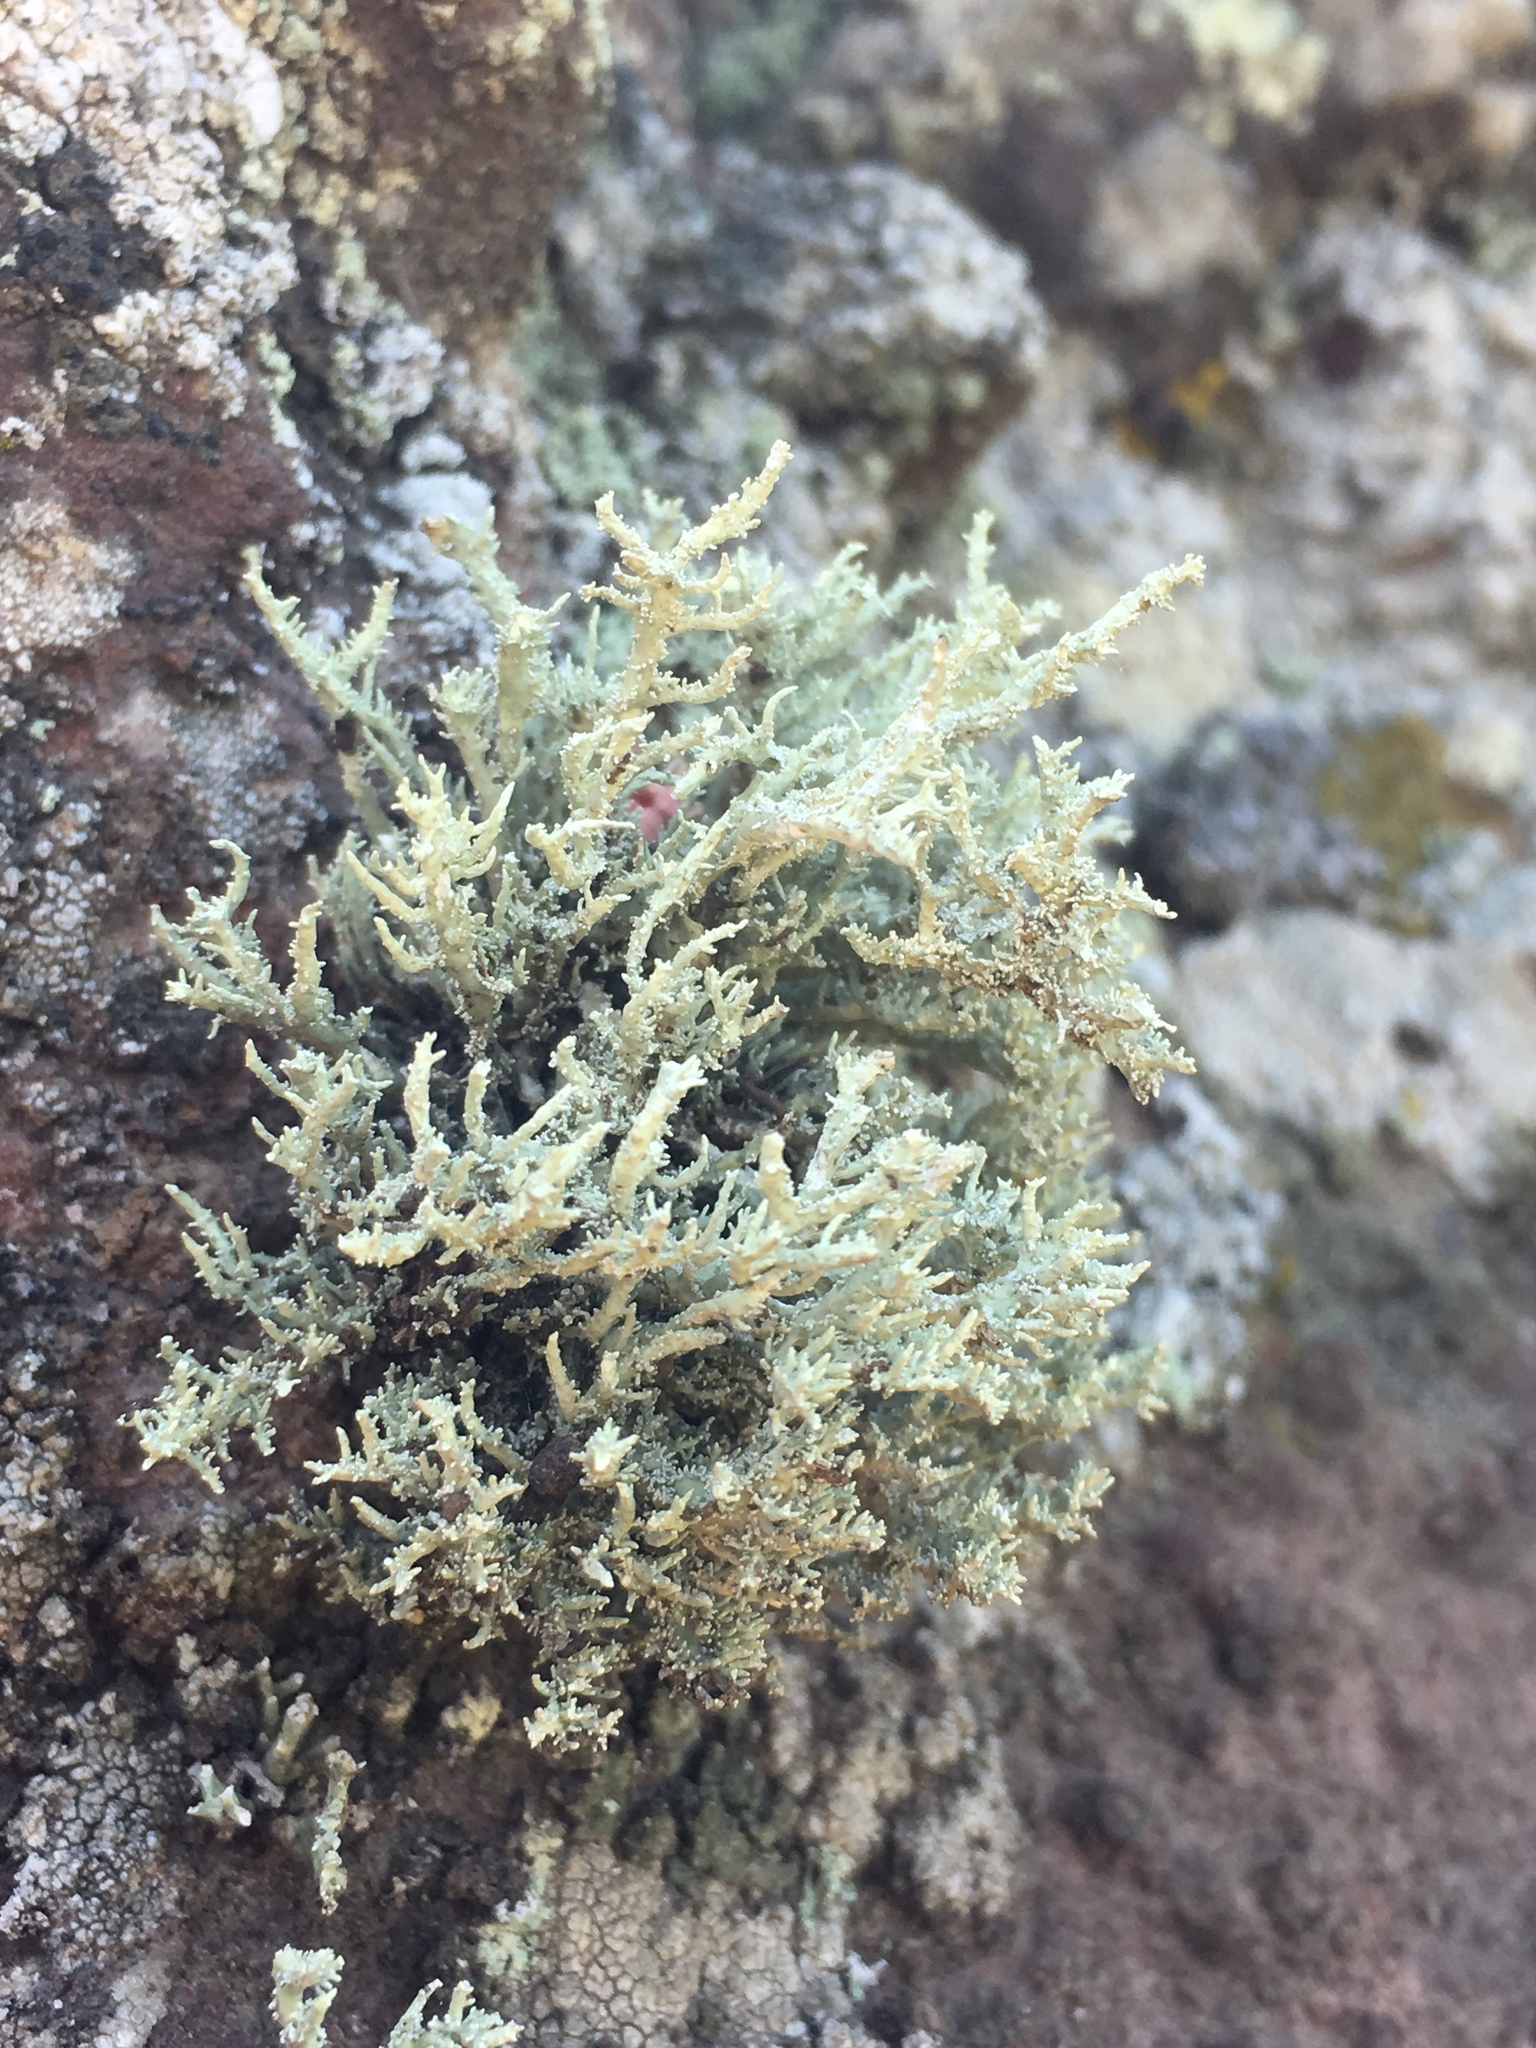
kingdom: Fungi
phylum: Ascomycota
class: Lecanoromycetes
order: Lecanorales
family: Ramalinaceae
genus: Niebla
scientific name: Niebla isidiaescens
